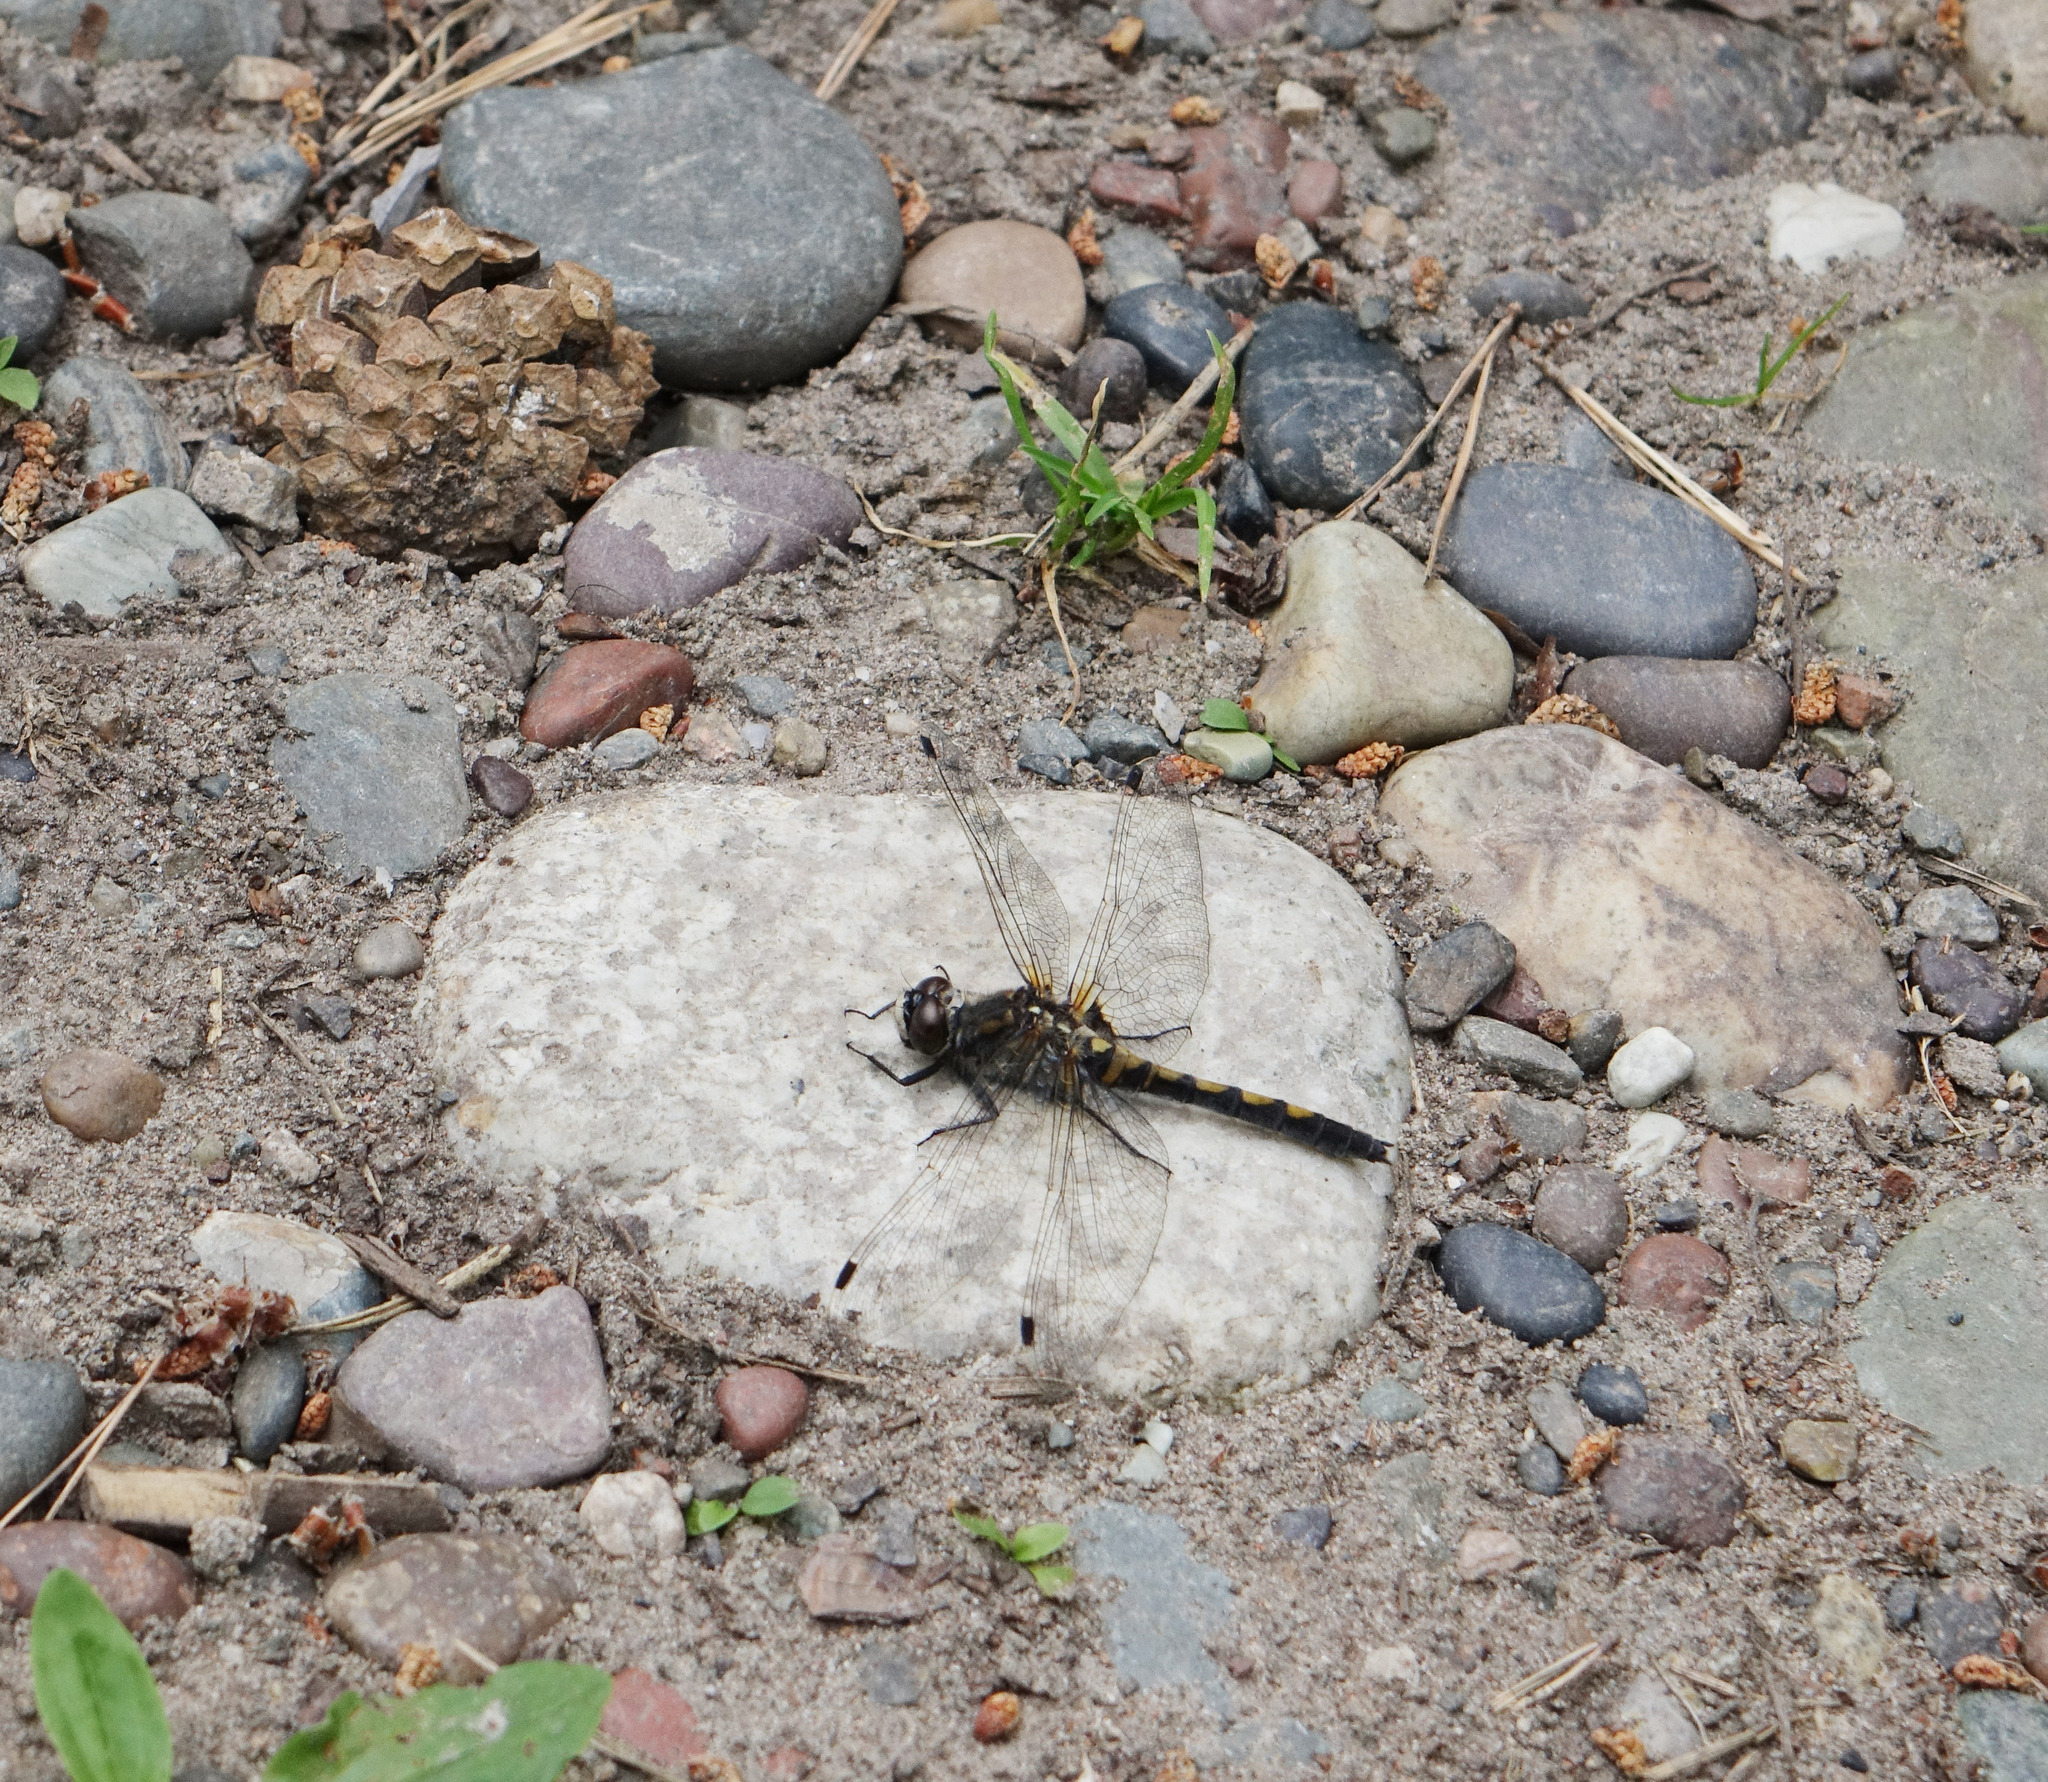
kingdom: Animalia
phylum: Arthropoda
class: Insecta
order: Odonata
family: Libellulidae
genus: Leucorrhinia
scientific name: Leucorrhinia rubicunda
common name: Ruby whiteface
